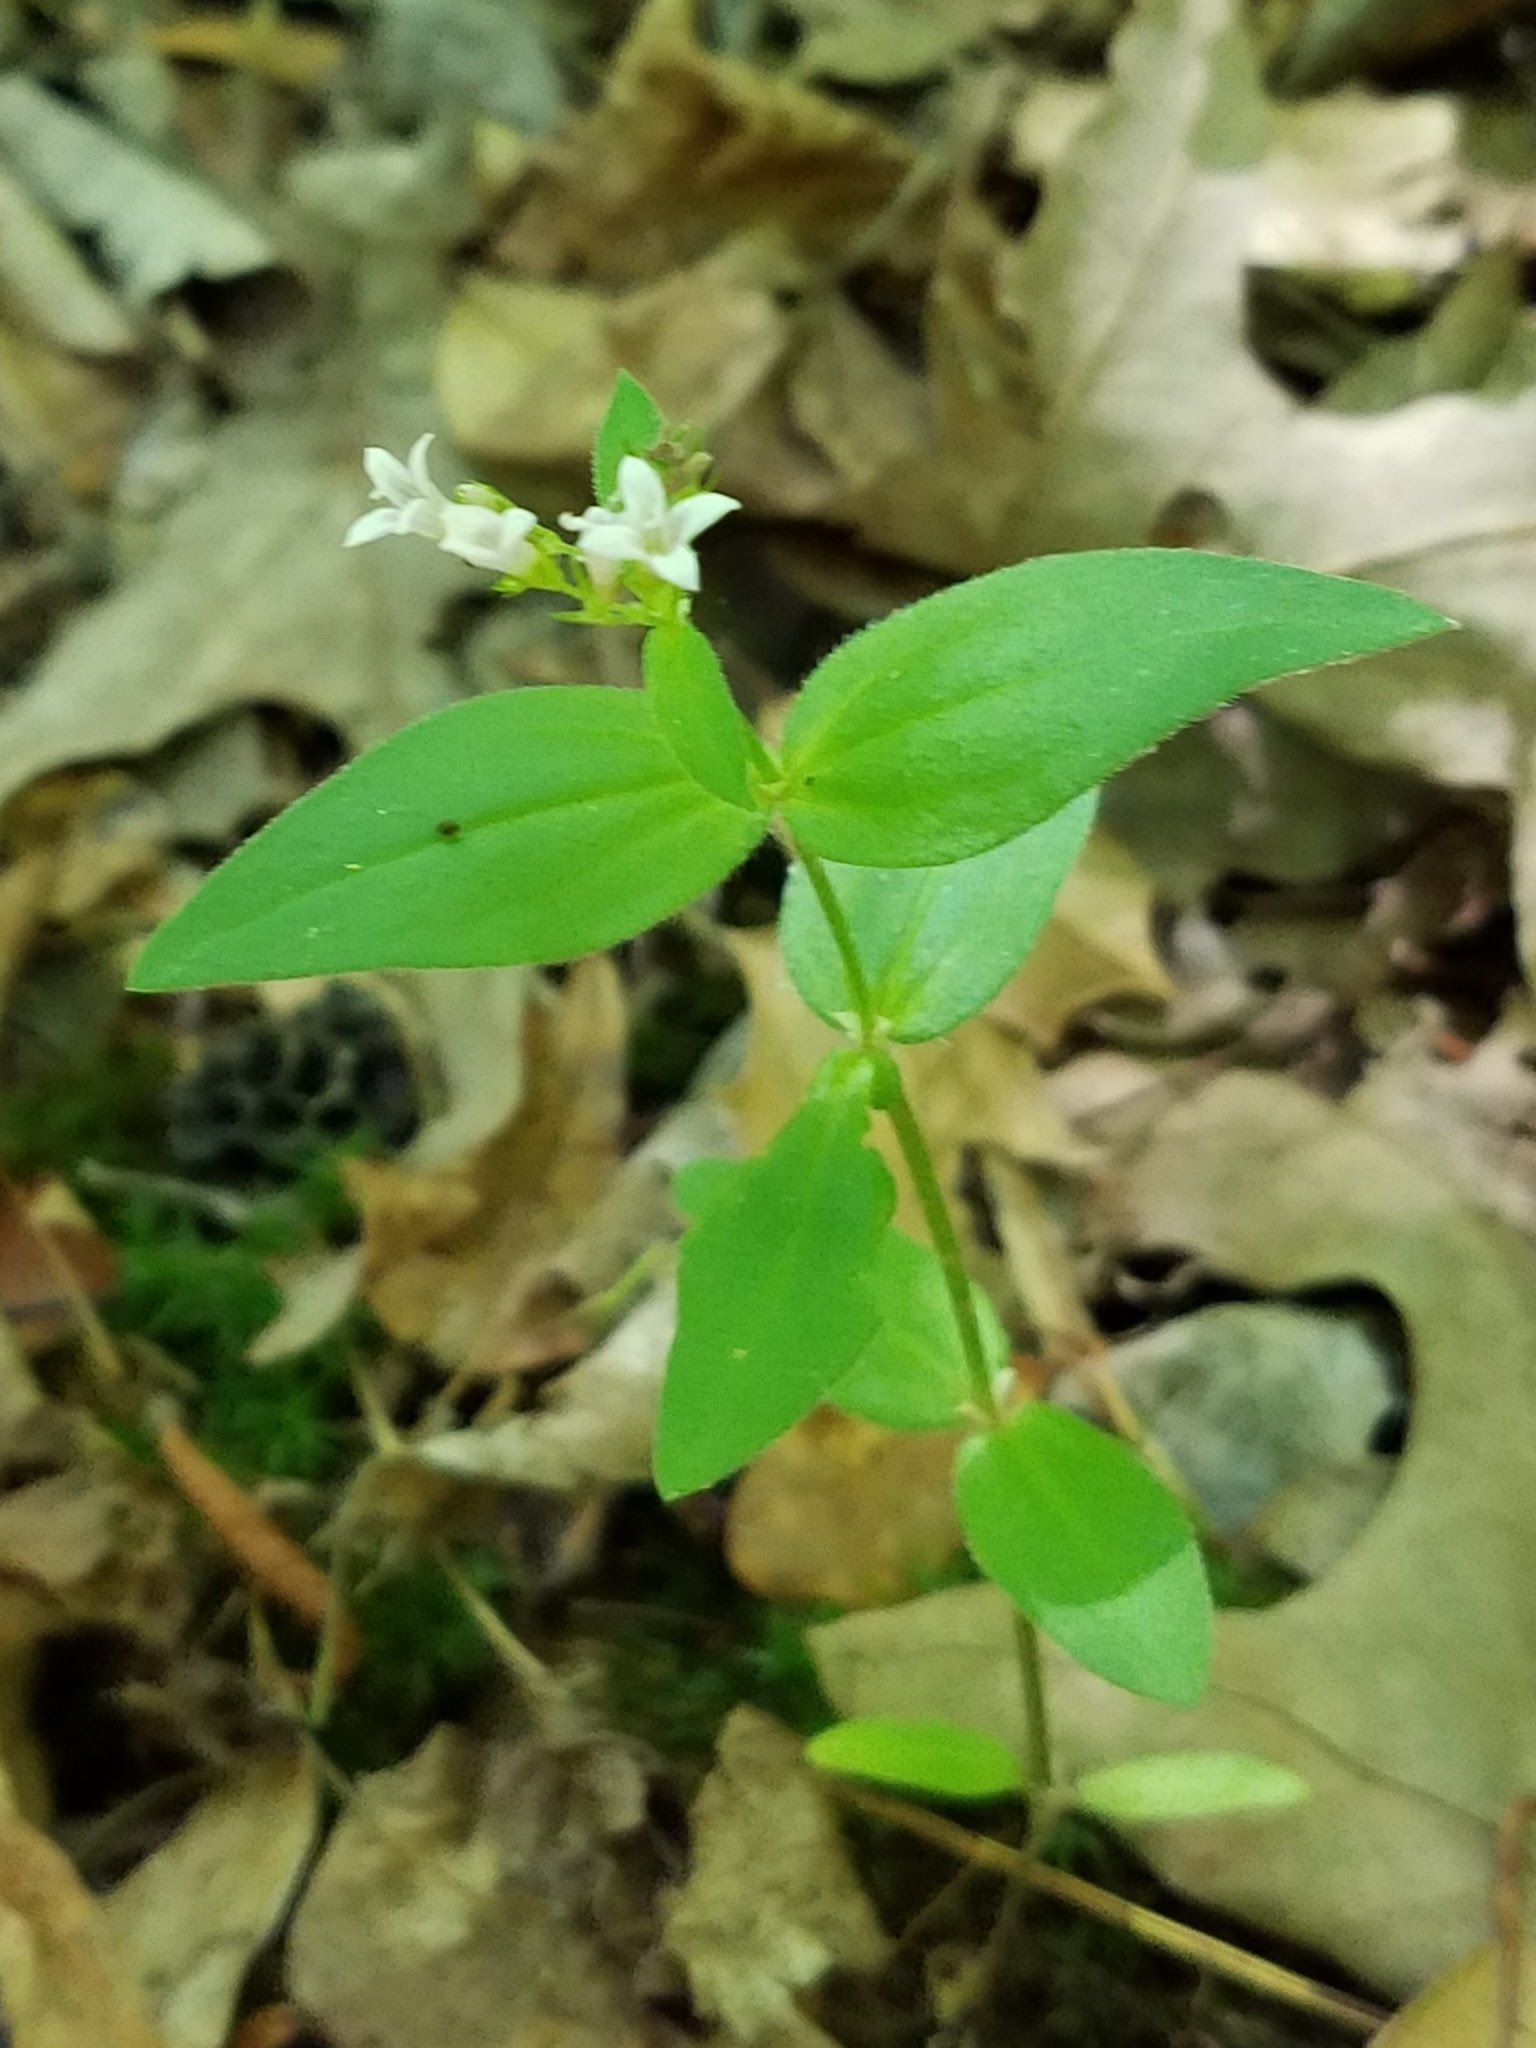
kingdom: Plantae
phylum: Tracheophyta
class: Magnoliopsida
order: Gentianales
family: Rubiaceae
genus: Houstonia
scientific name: Houstonia purpurea
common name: Summer bluet
